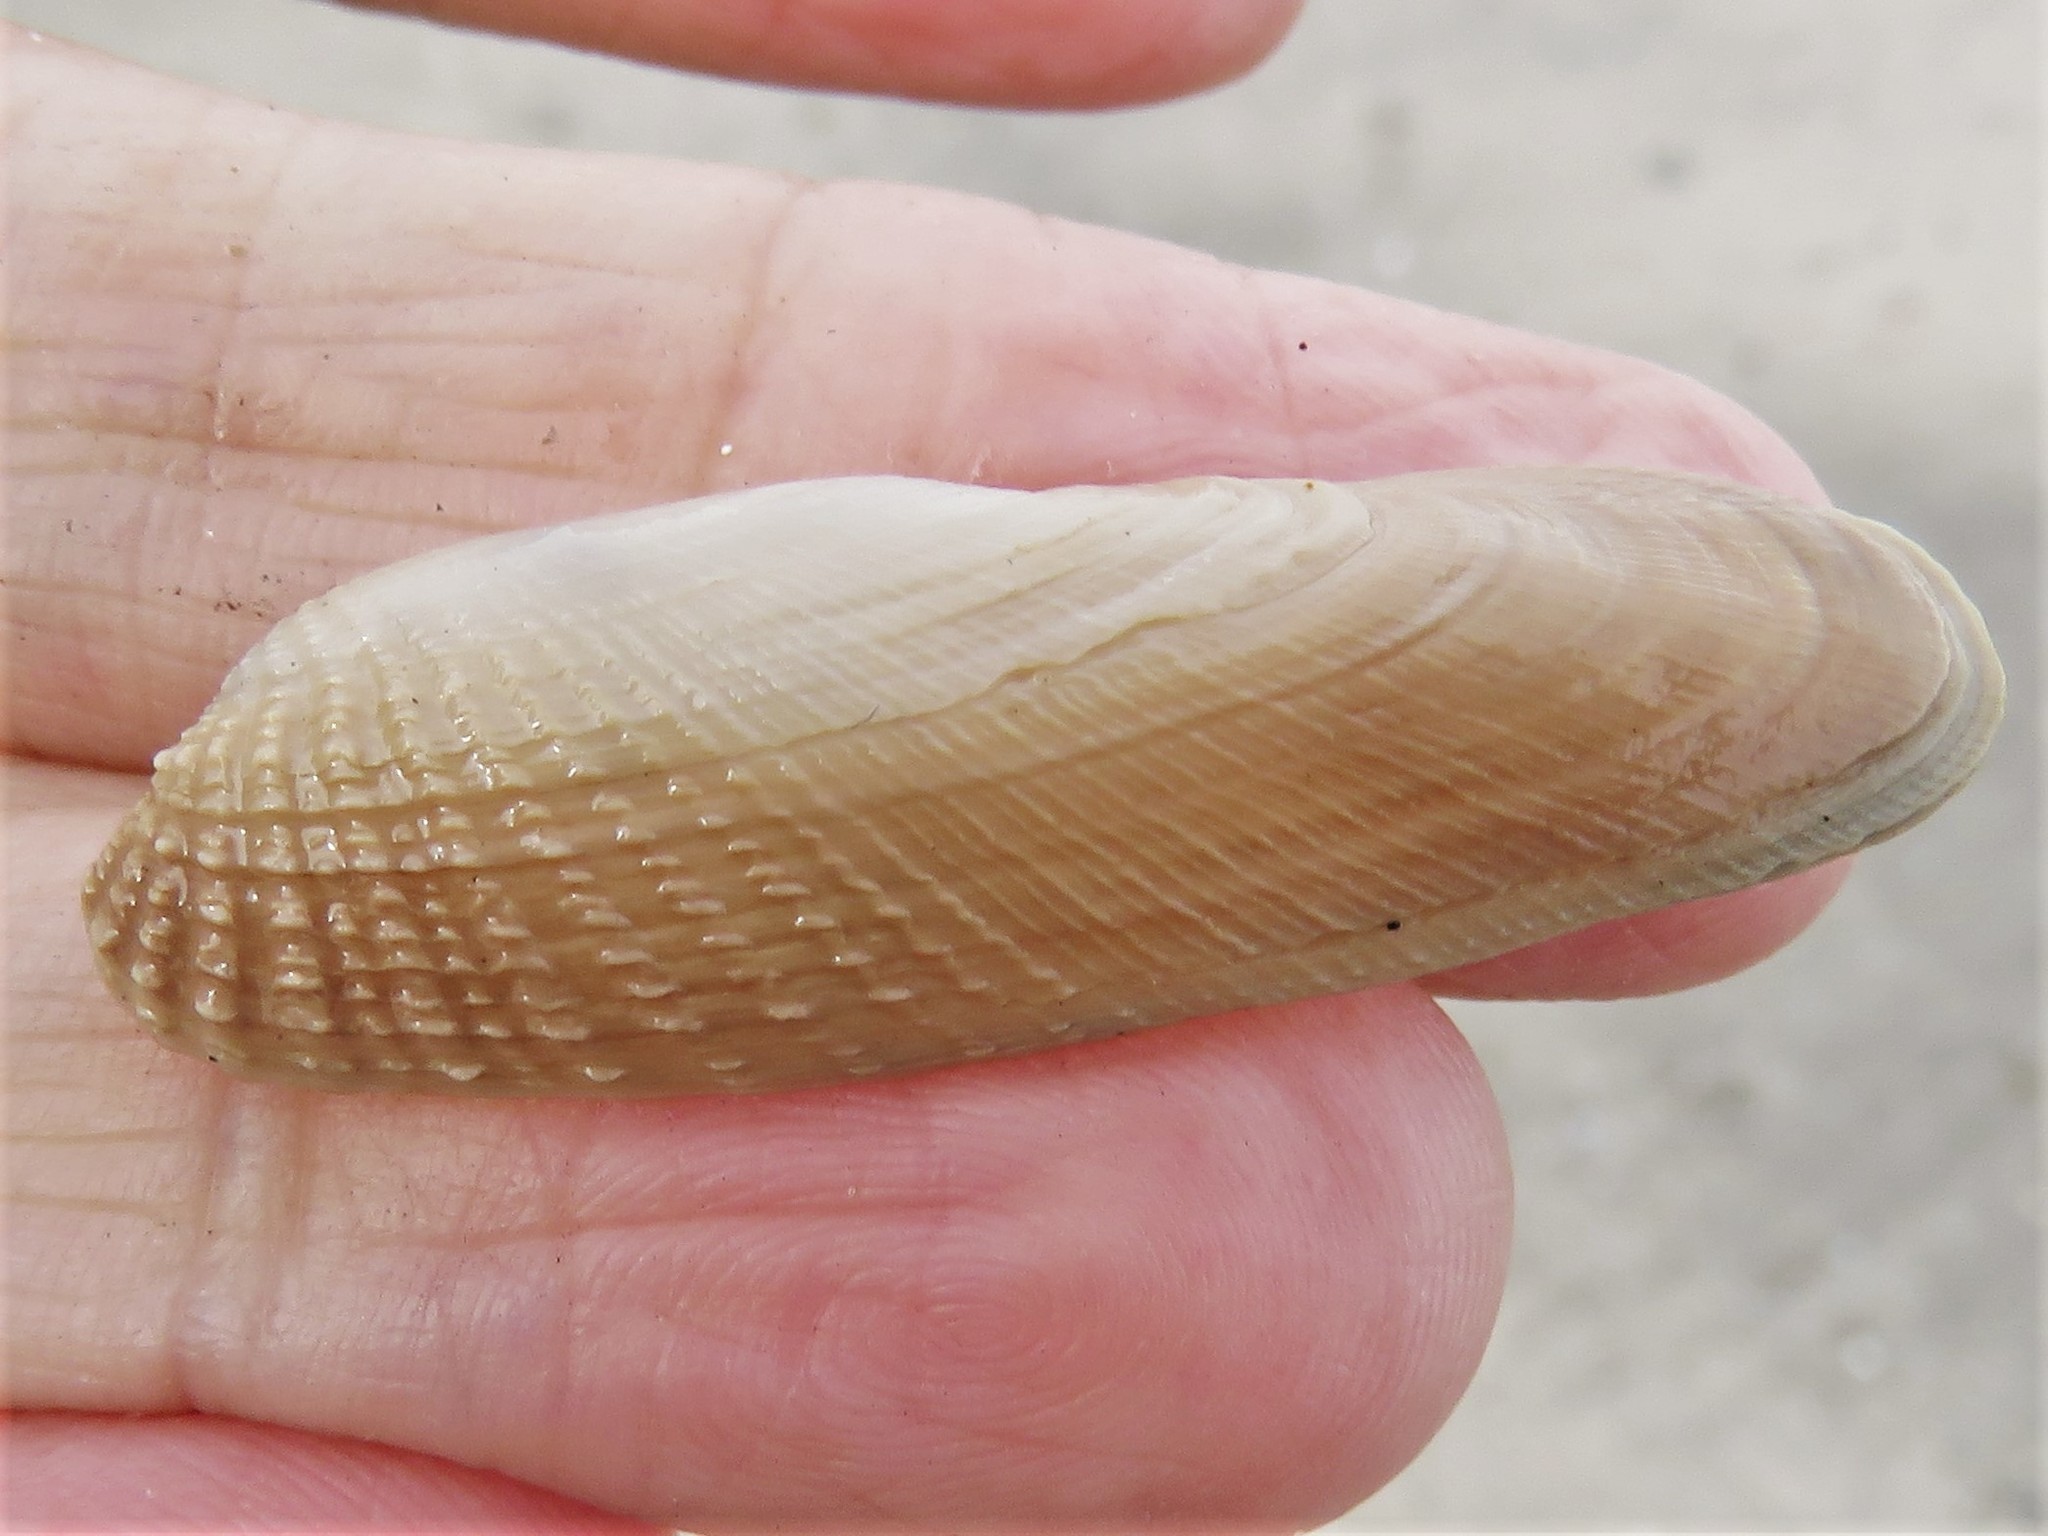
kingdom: Animalia
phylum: Mollusca
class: Bivalvia
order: Venerida
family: Veneridae
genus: Petricolaria
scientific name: Petricolaria pholadiformis
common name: American piddock
